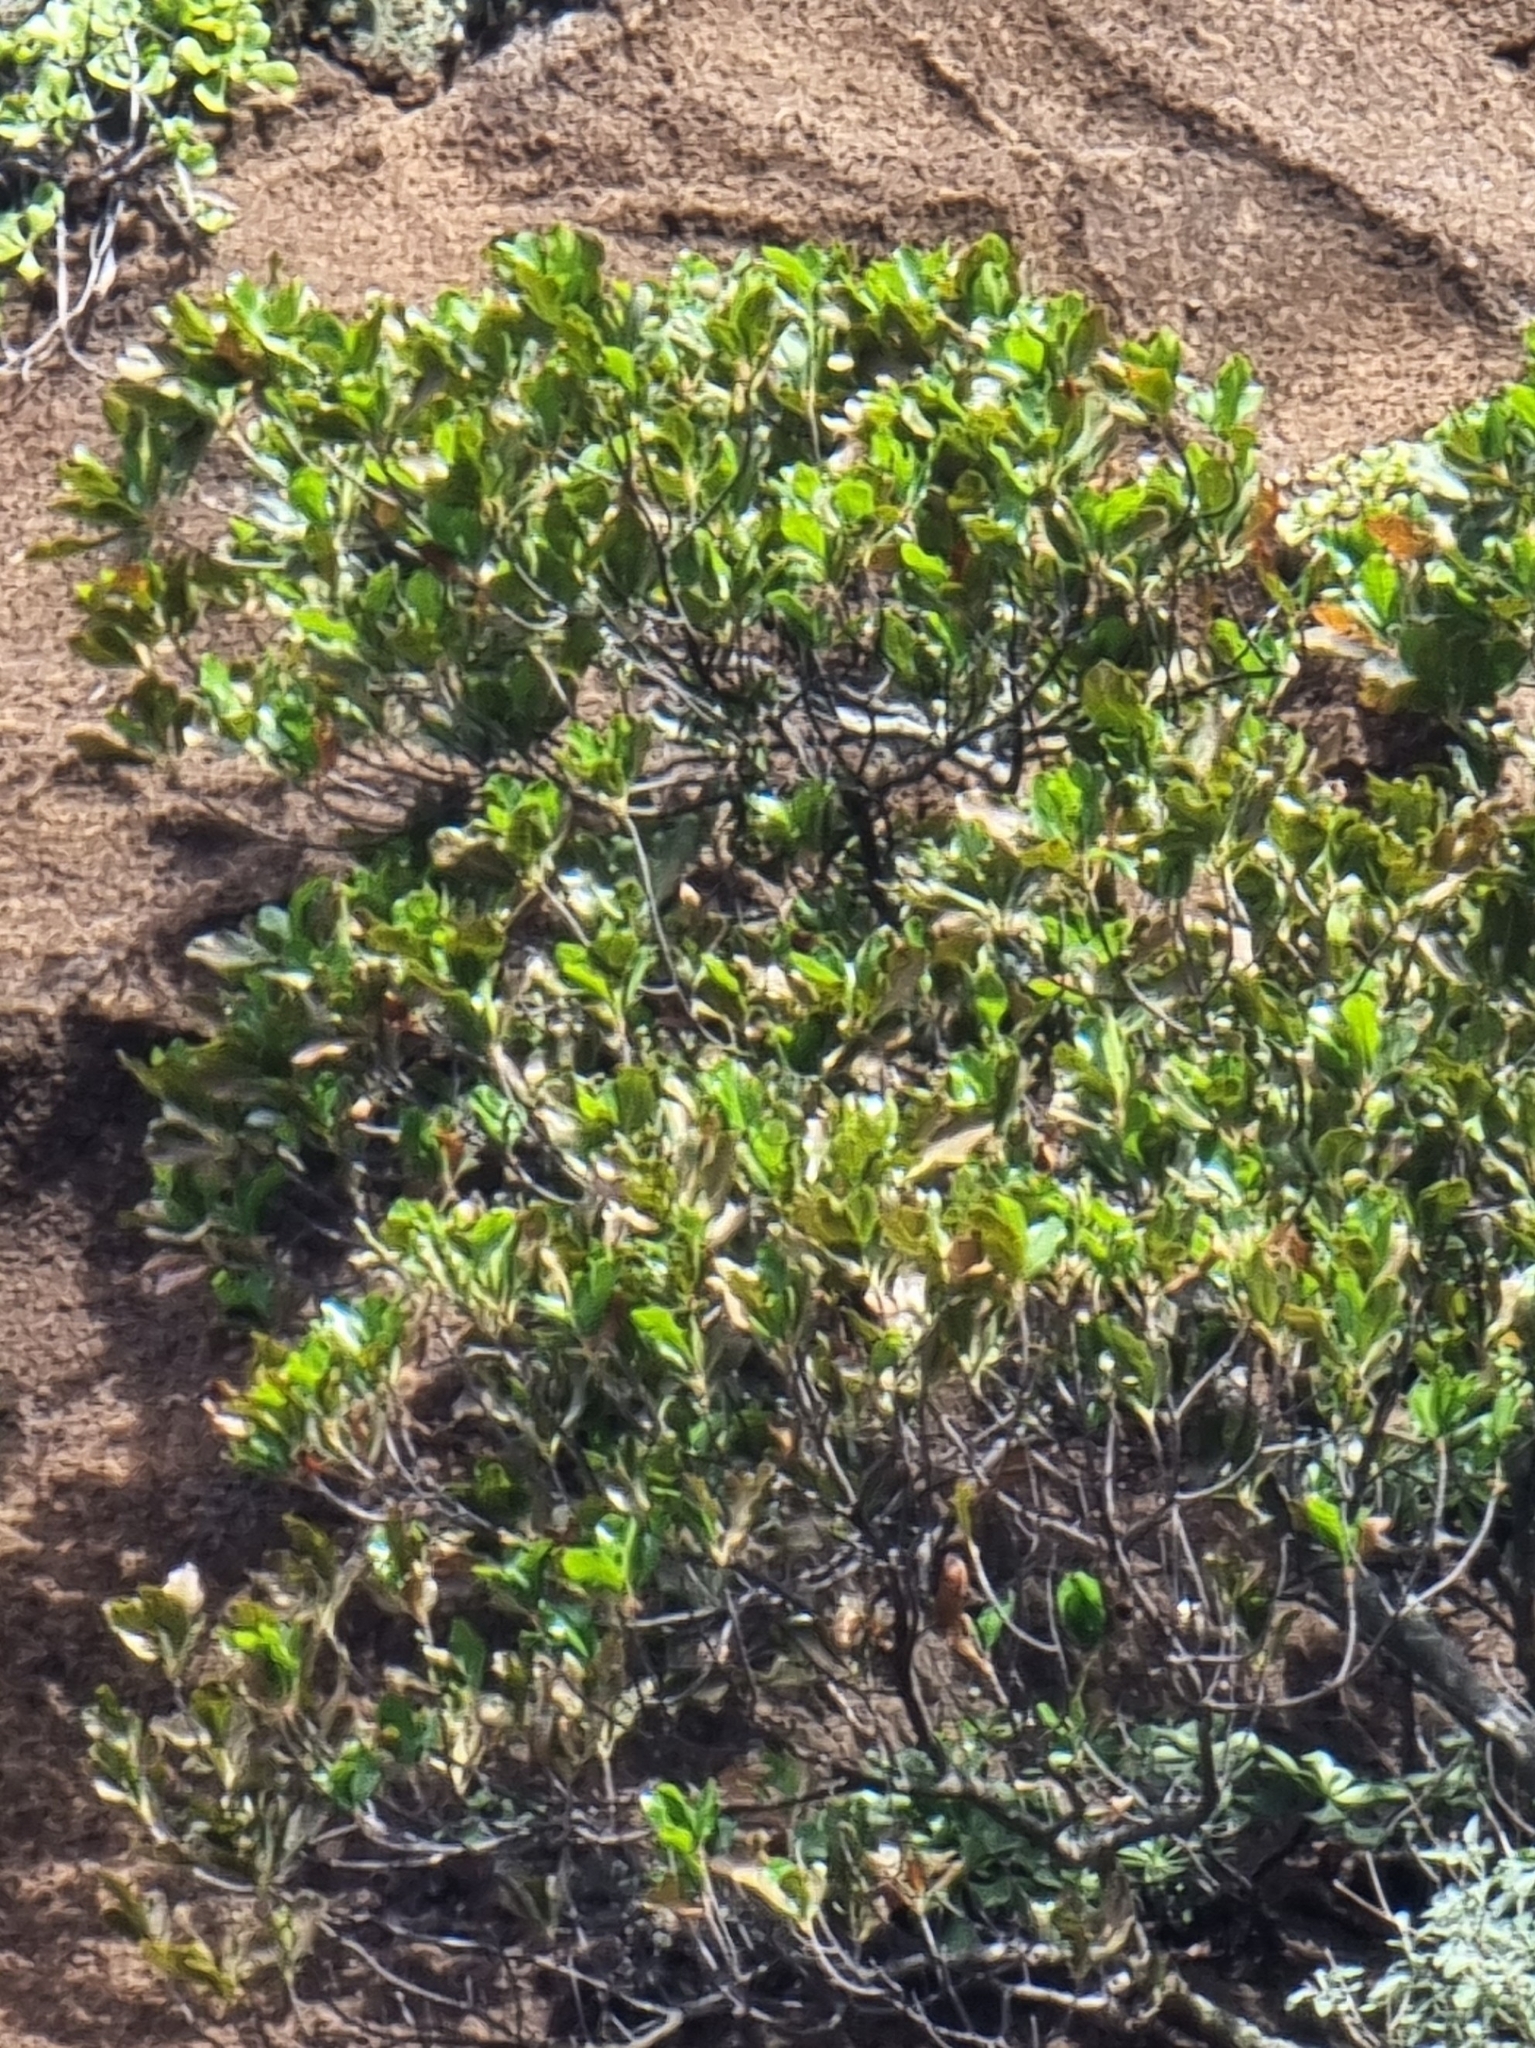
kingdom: Plantae
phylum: Tracheophyta
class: Magnoliopsida
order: Ericales
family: Sapotaceae
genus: Sideroxylon
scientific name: Sideroxylon mirmulans
